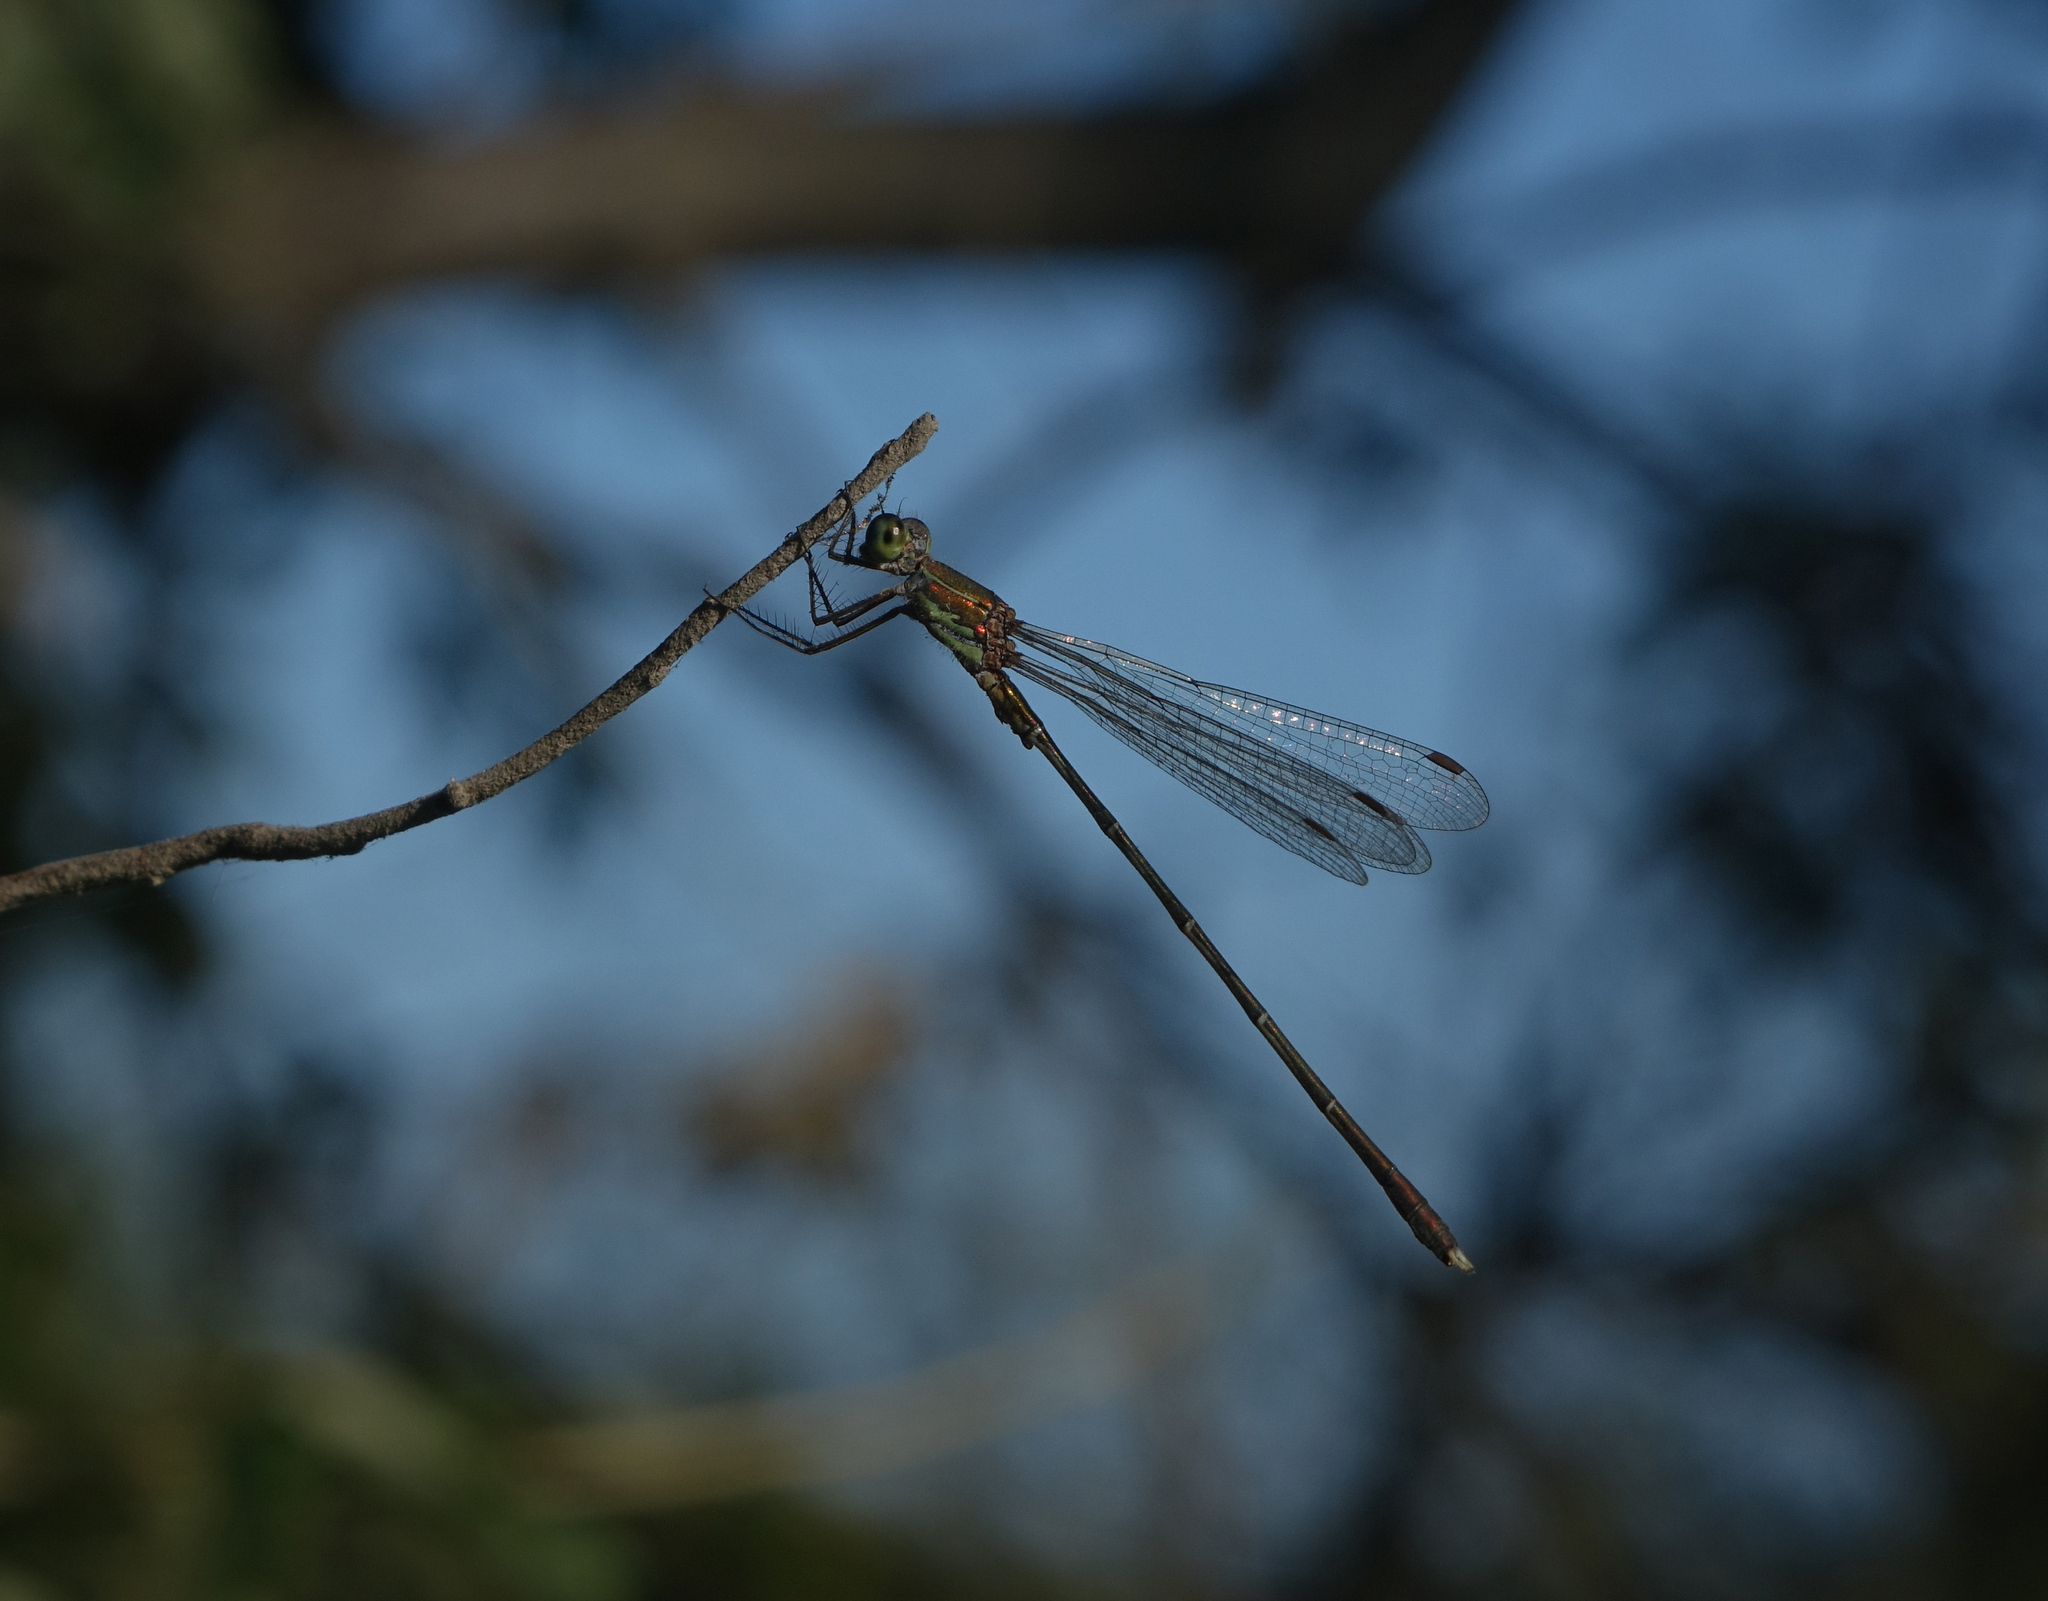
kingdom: Animalia
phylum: Arthropoda
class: Insecta
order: Odonata
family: Lestidae
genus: Chalcolestes
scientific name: Chalcolestes parvidens
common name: Eastern willow spreadwing
